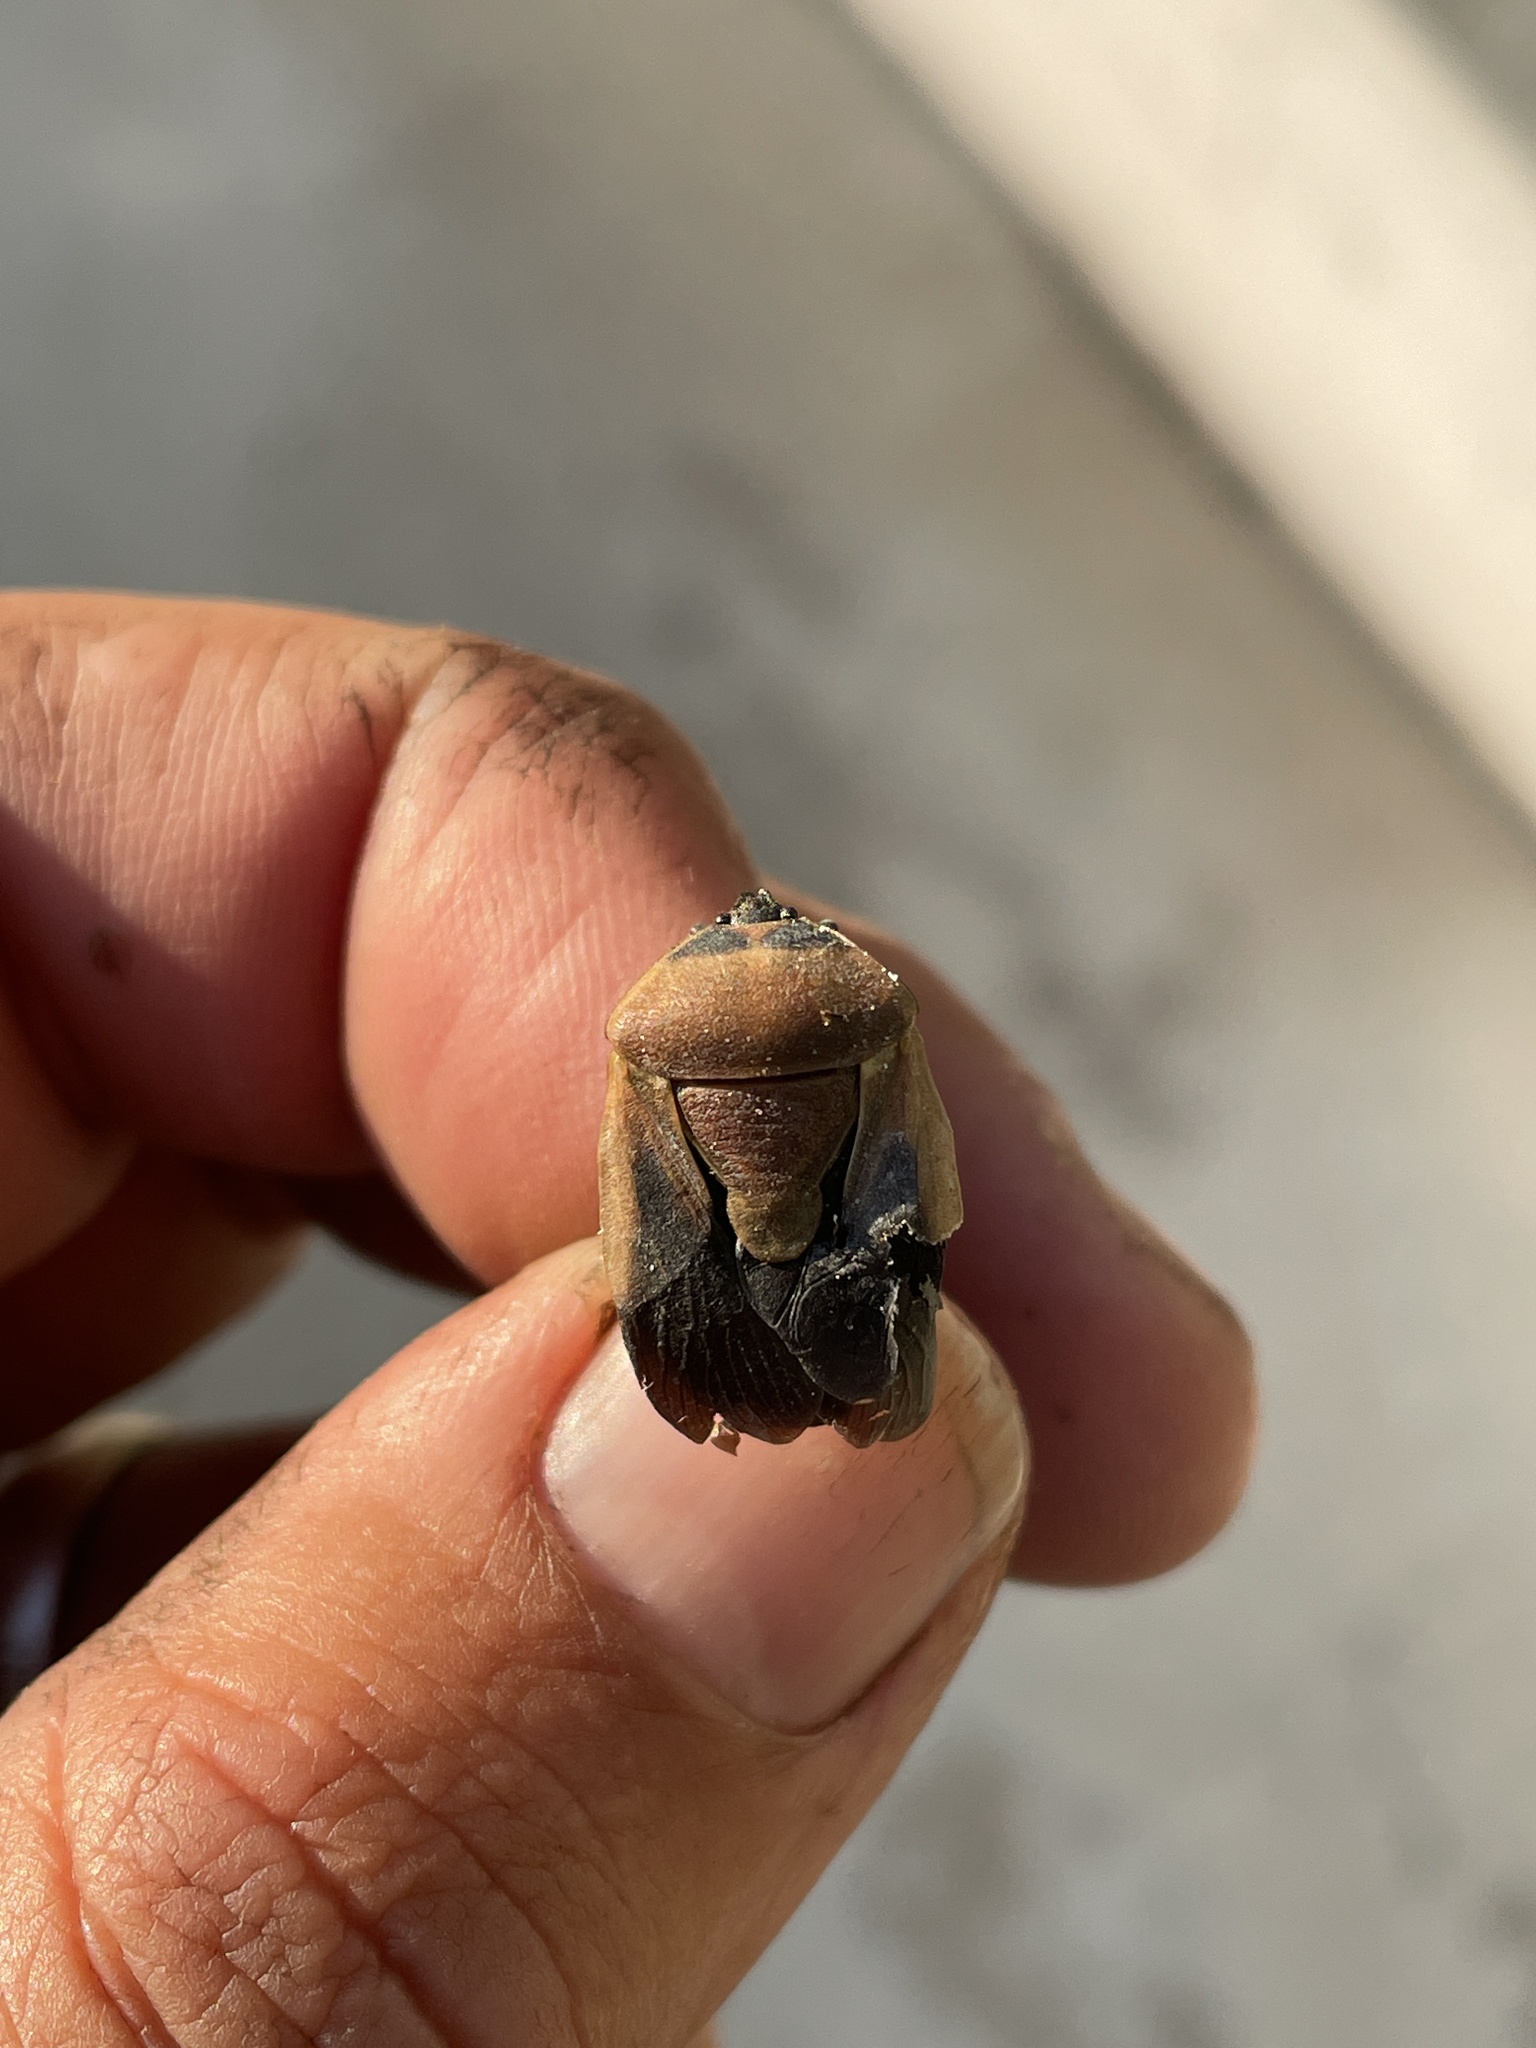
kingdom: Animalia
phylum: Arthropoda
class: Insecta
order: Hemiptera
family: Dinidoridae
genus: Coridius
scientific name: Coridius viduatus
